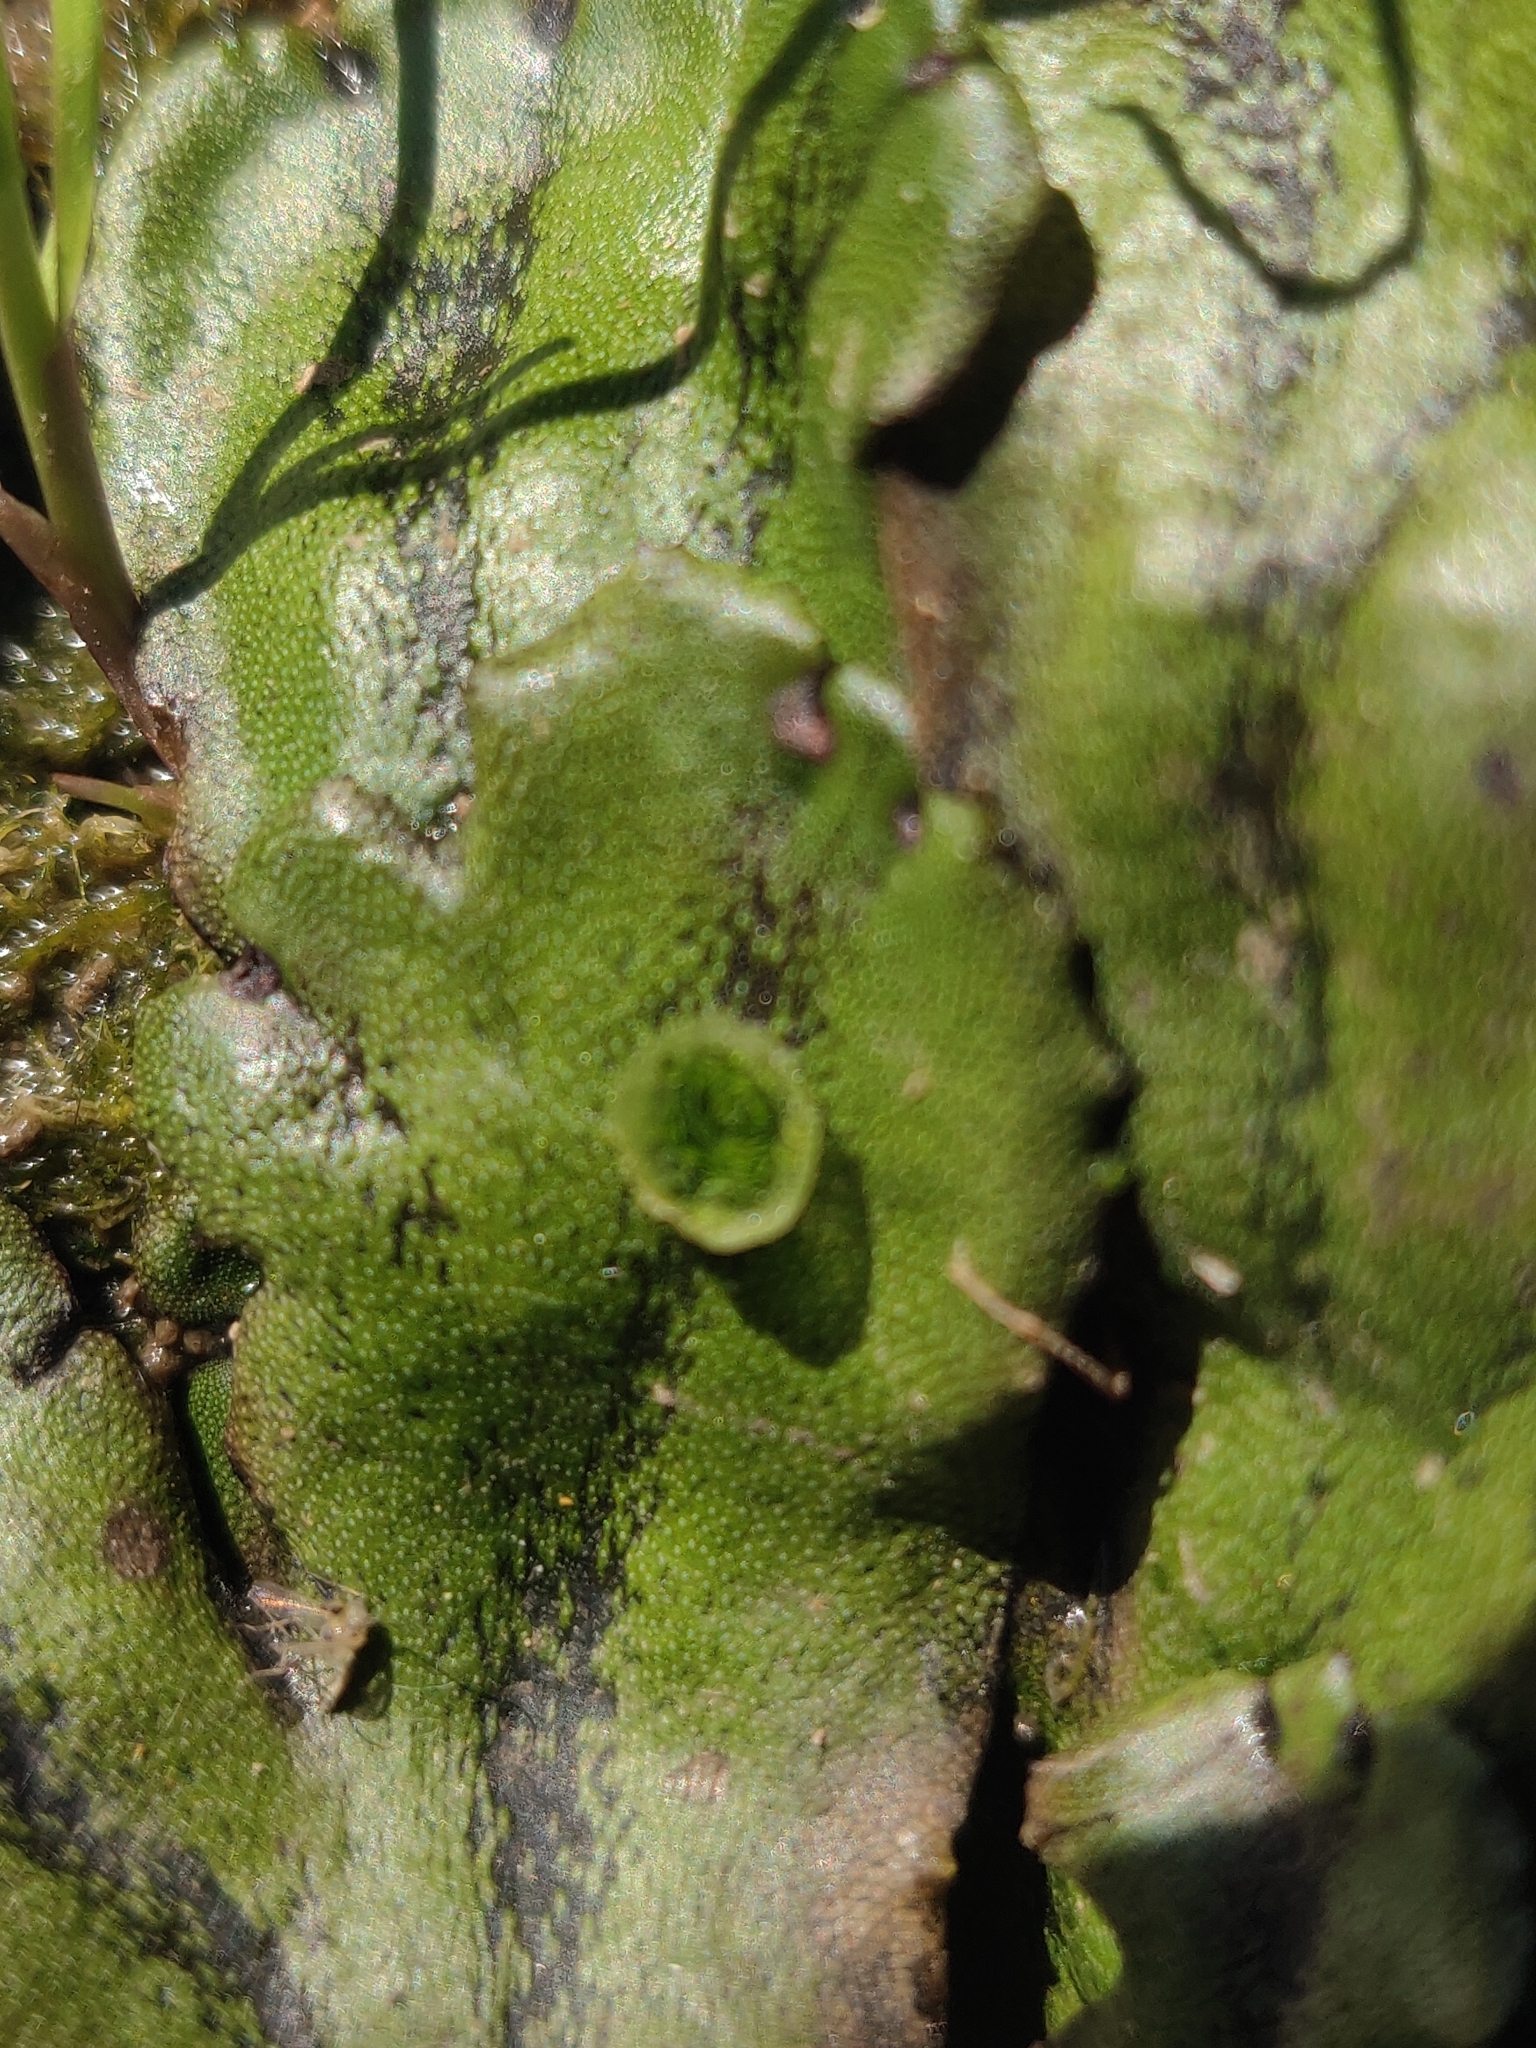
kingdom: Plantae
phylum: Marchantiophyta
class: Marchantiopsida
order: Marchantiales
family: Marchantiaceae
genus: Marchantia
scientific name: Marchantia polymorpha
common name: Common liverwort
